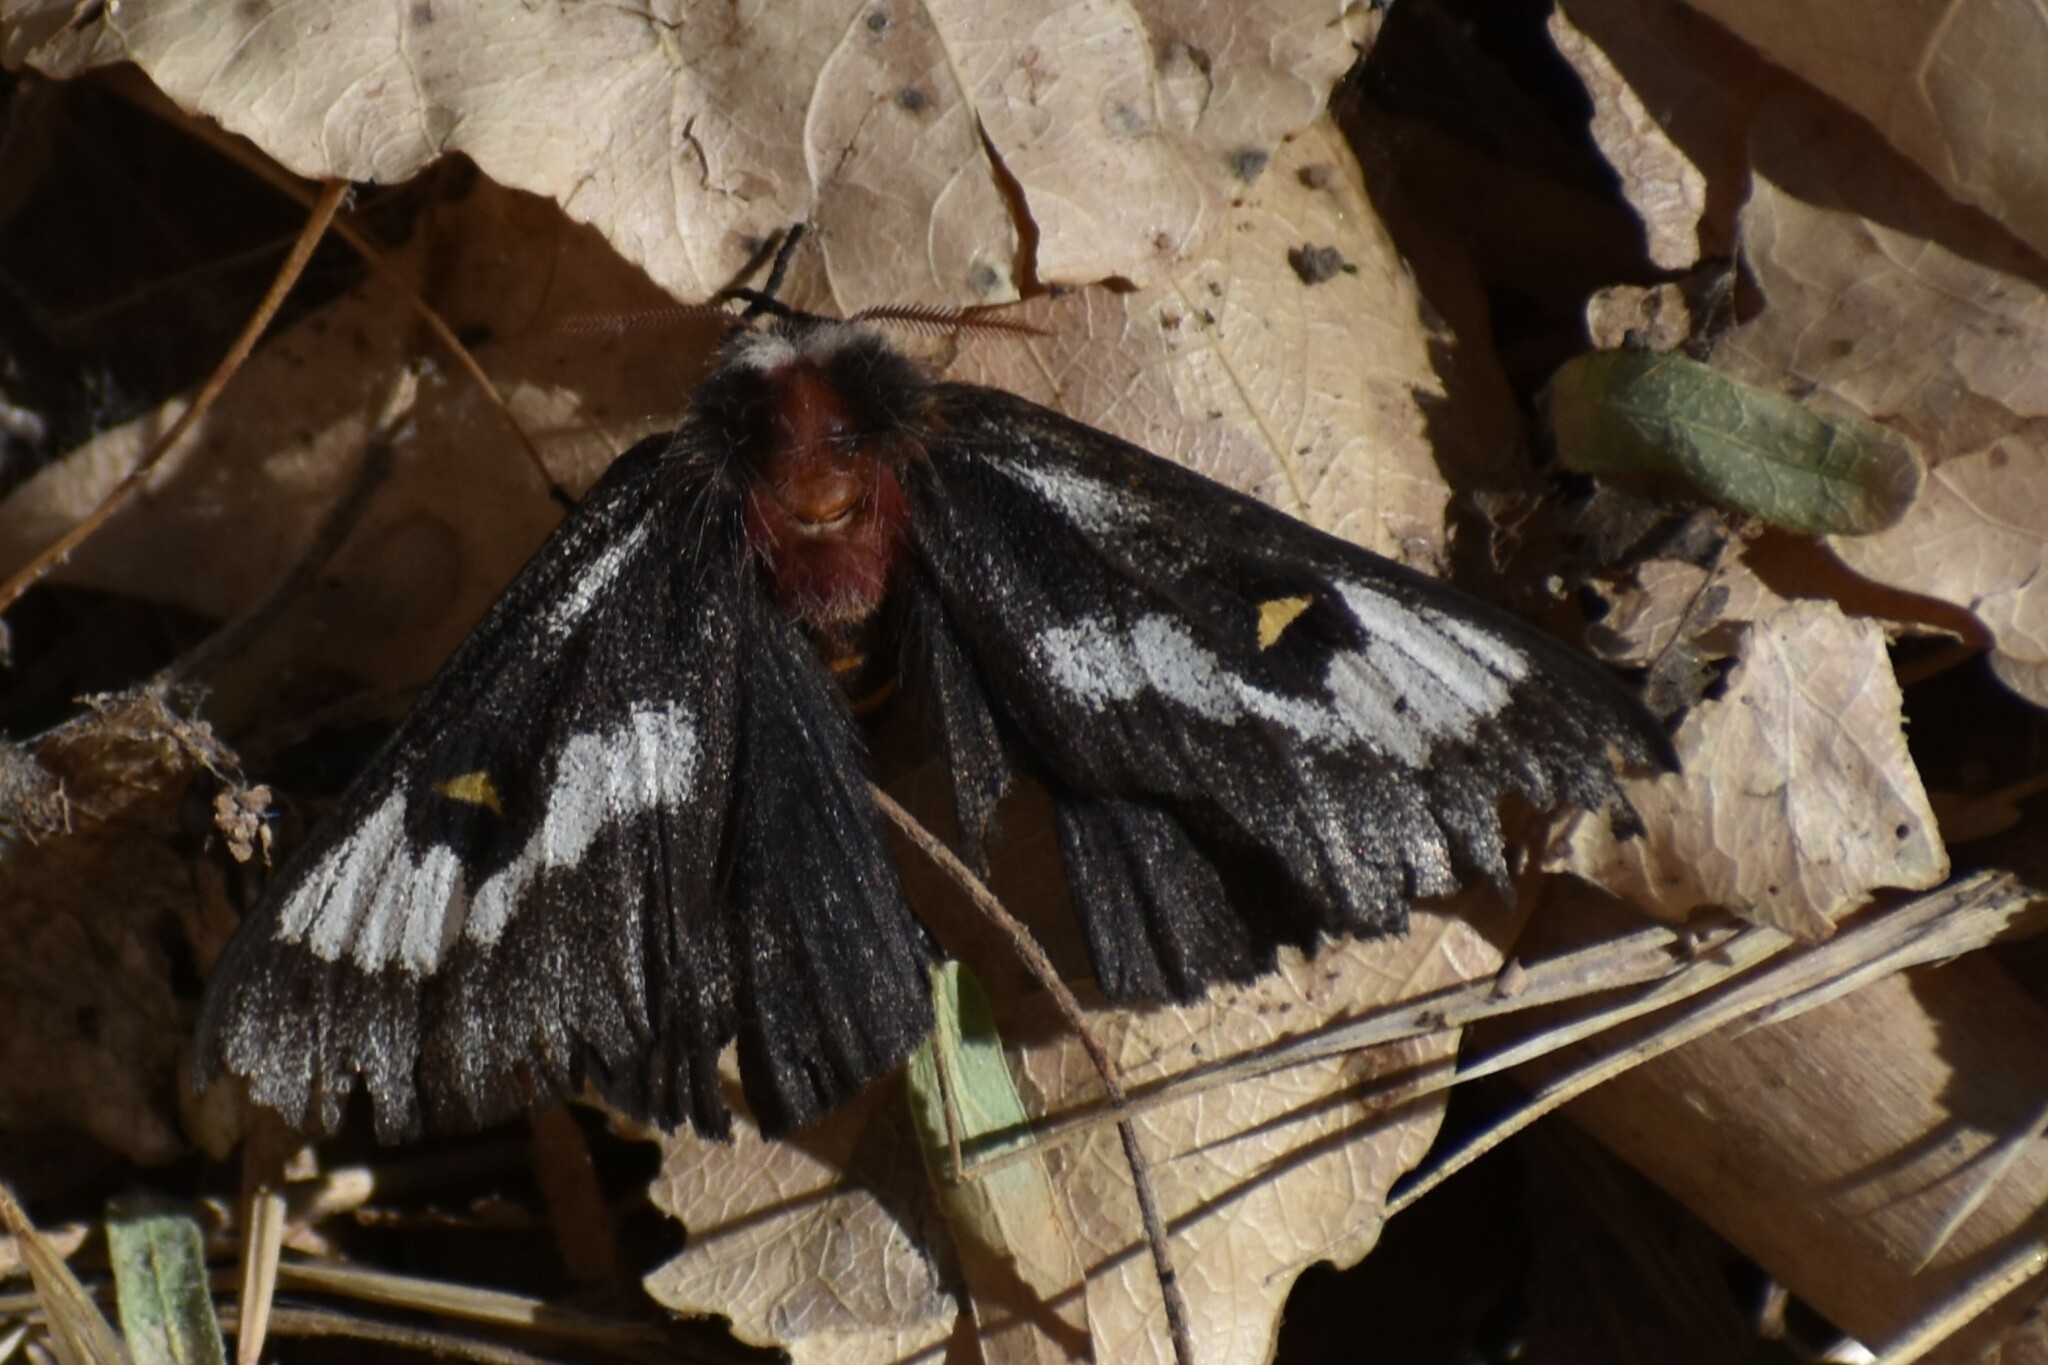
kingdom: Animalia
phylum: Arthropoda
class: Insecta
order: Lepidoptera
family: Saturniidae
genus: Hemileuca
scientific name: Hemileuca juno
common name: Juno buckmoth
